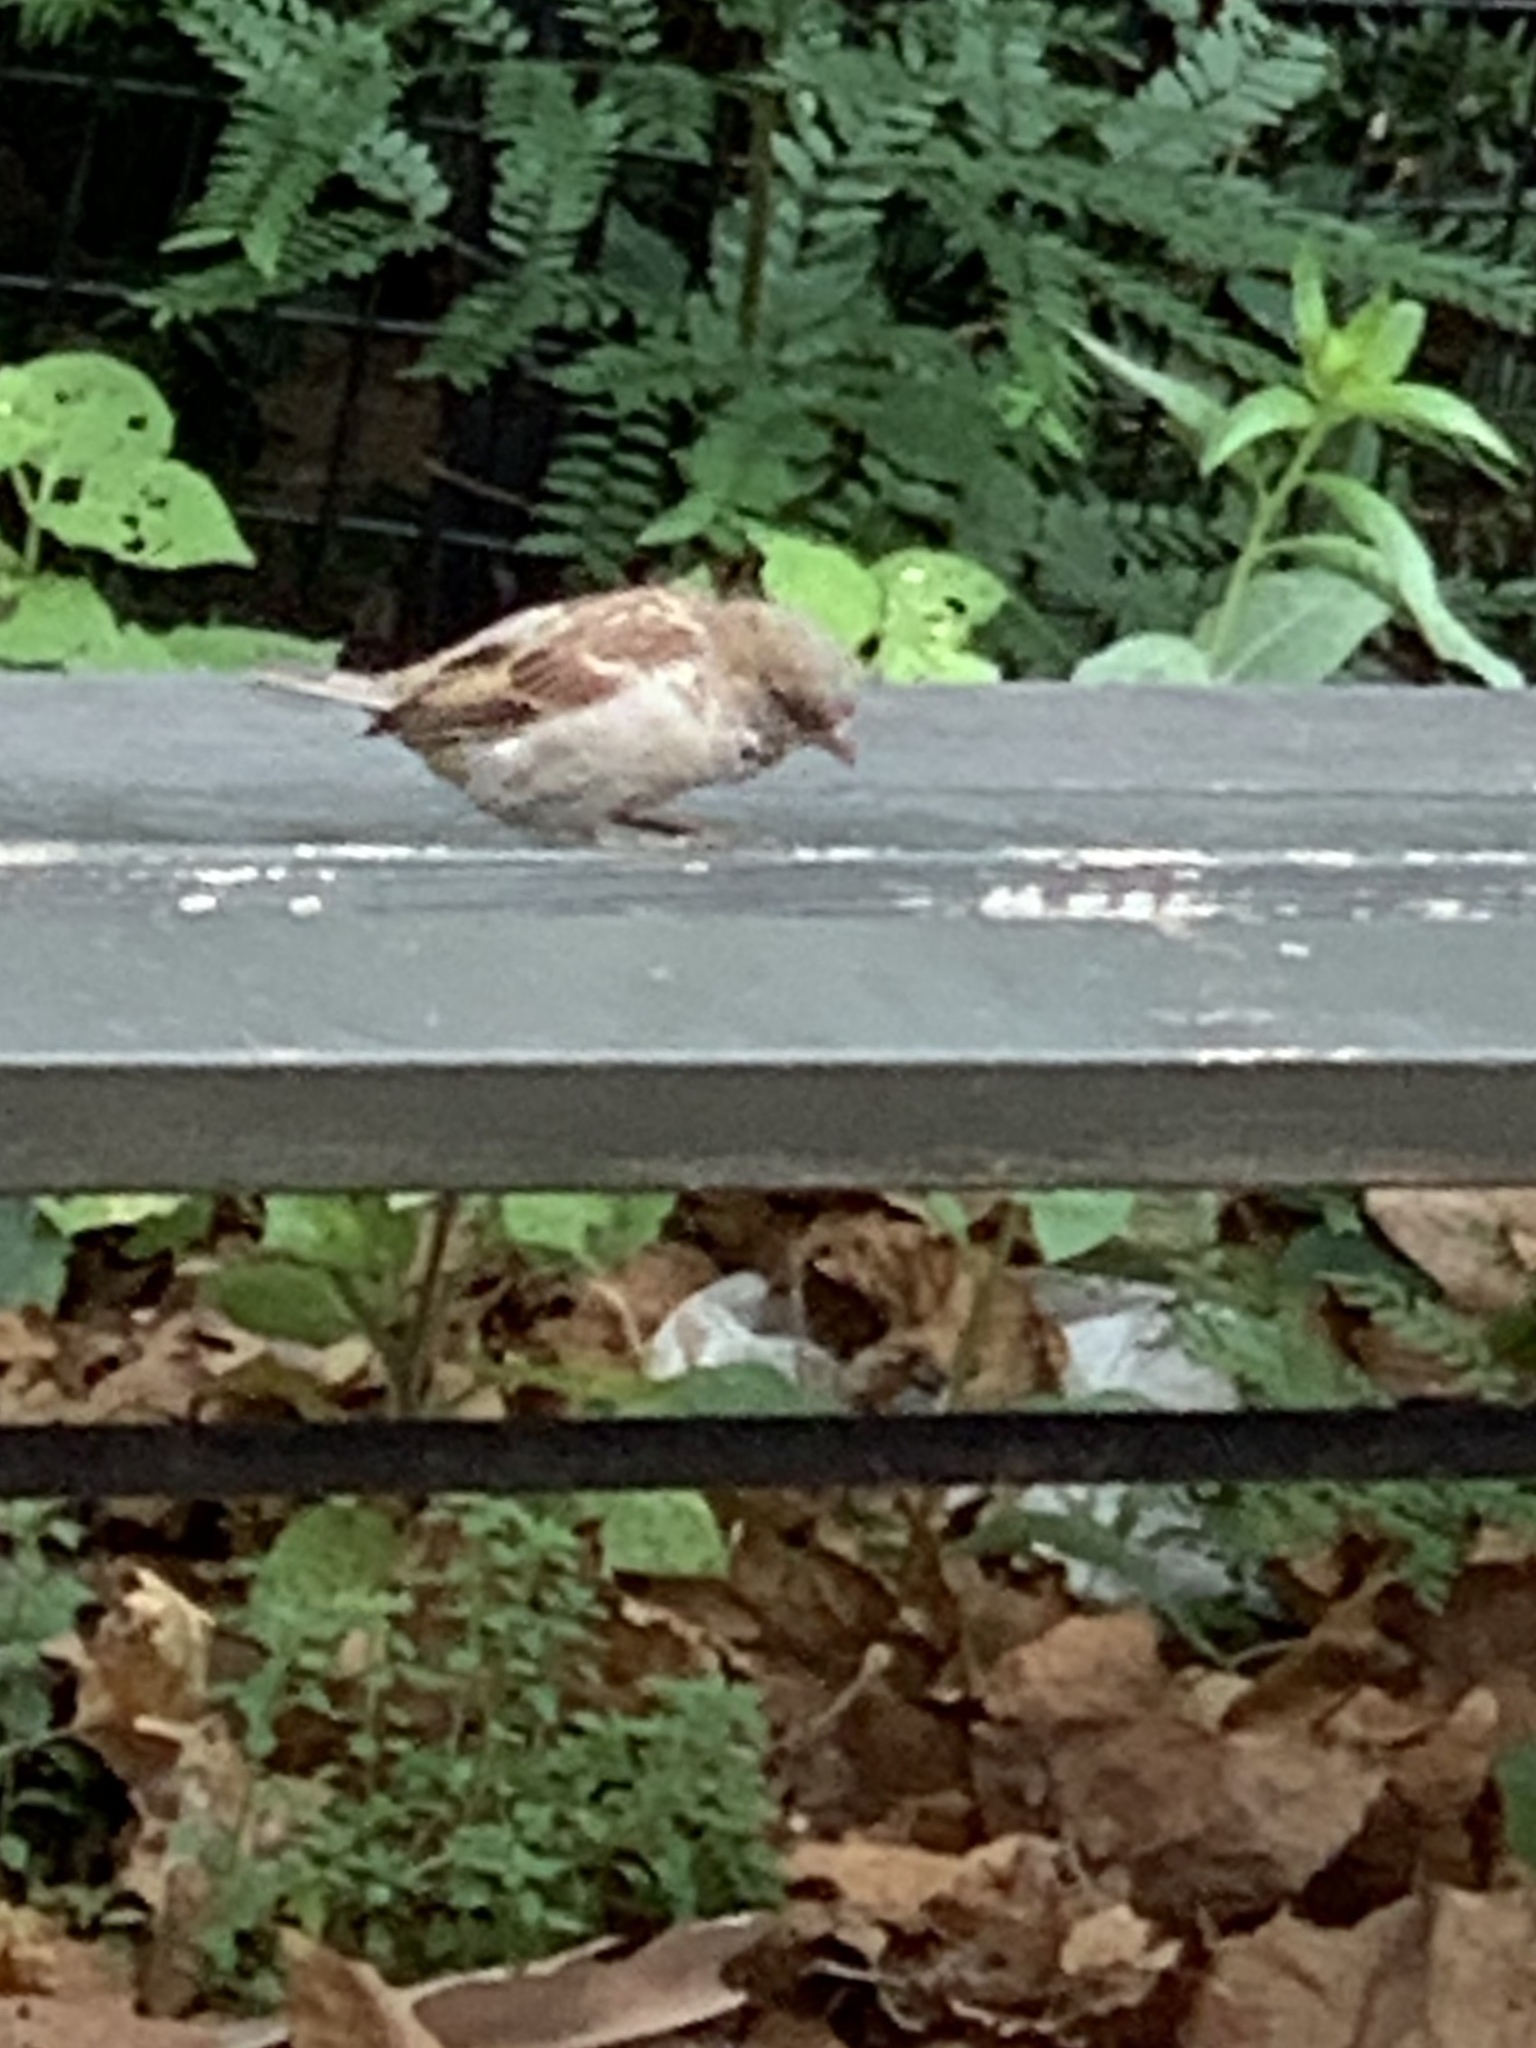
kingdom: Animalia
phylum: Chordata
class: Aves
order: Passeriformes
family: Passeridae
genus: Passer
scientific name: Passer domesticus
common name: House sparrow
